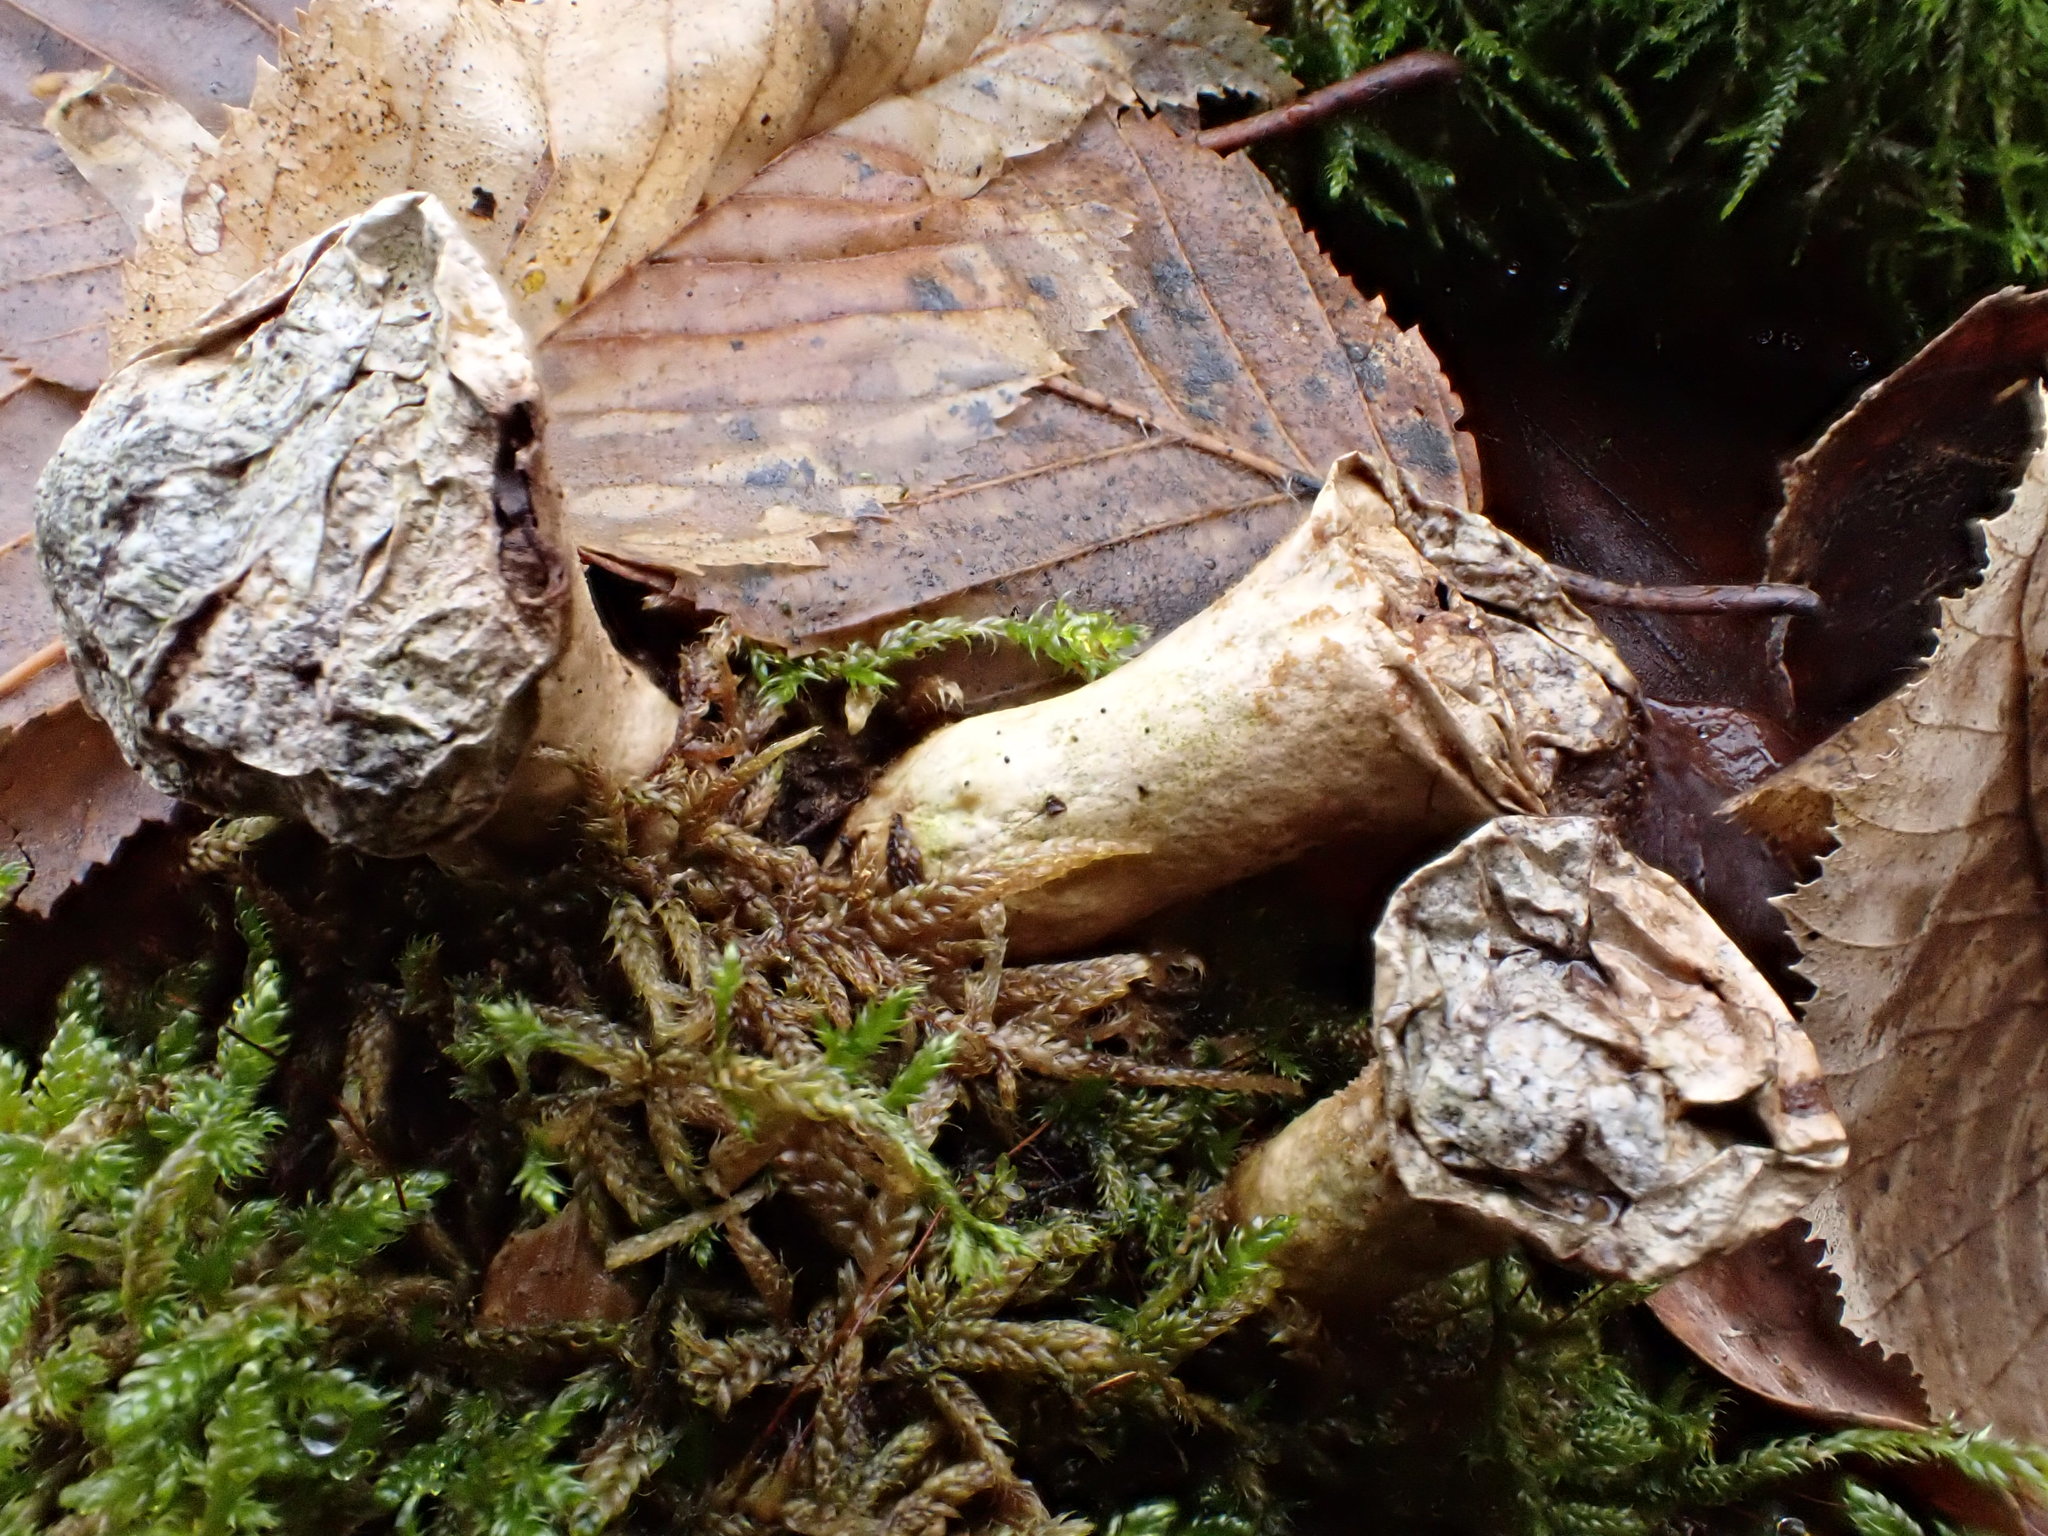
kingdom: Fungi
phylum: Basidiomycota
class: Agaricomycetes
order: Agaricales
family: Lycoperdaceae
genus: Apioperdon
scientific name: Apioperdon pyriforme
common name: Pear-shaped puffball
